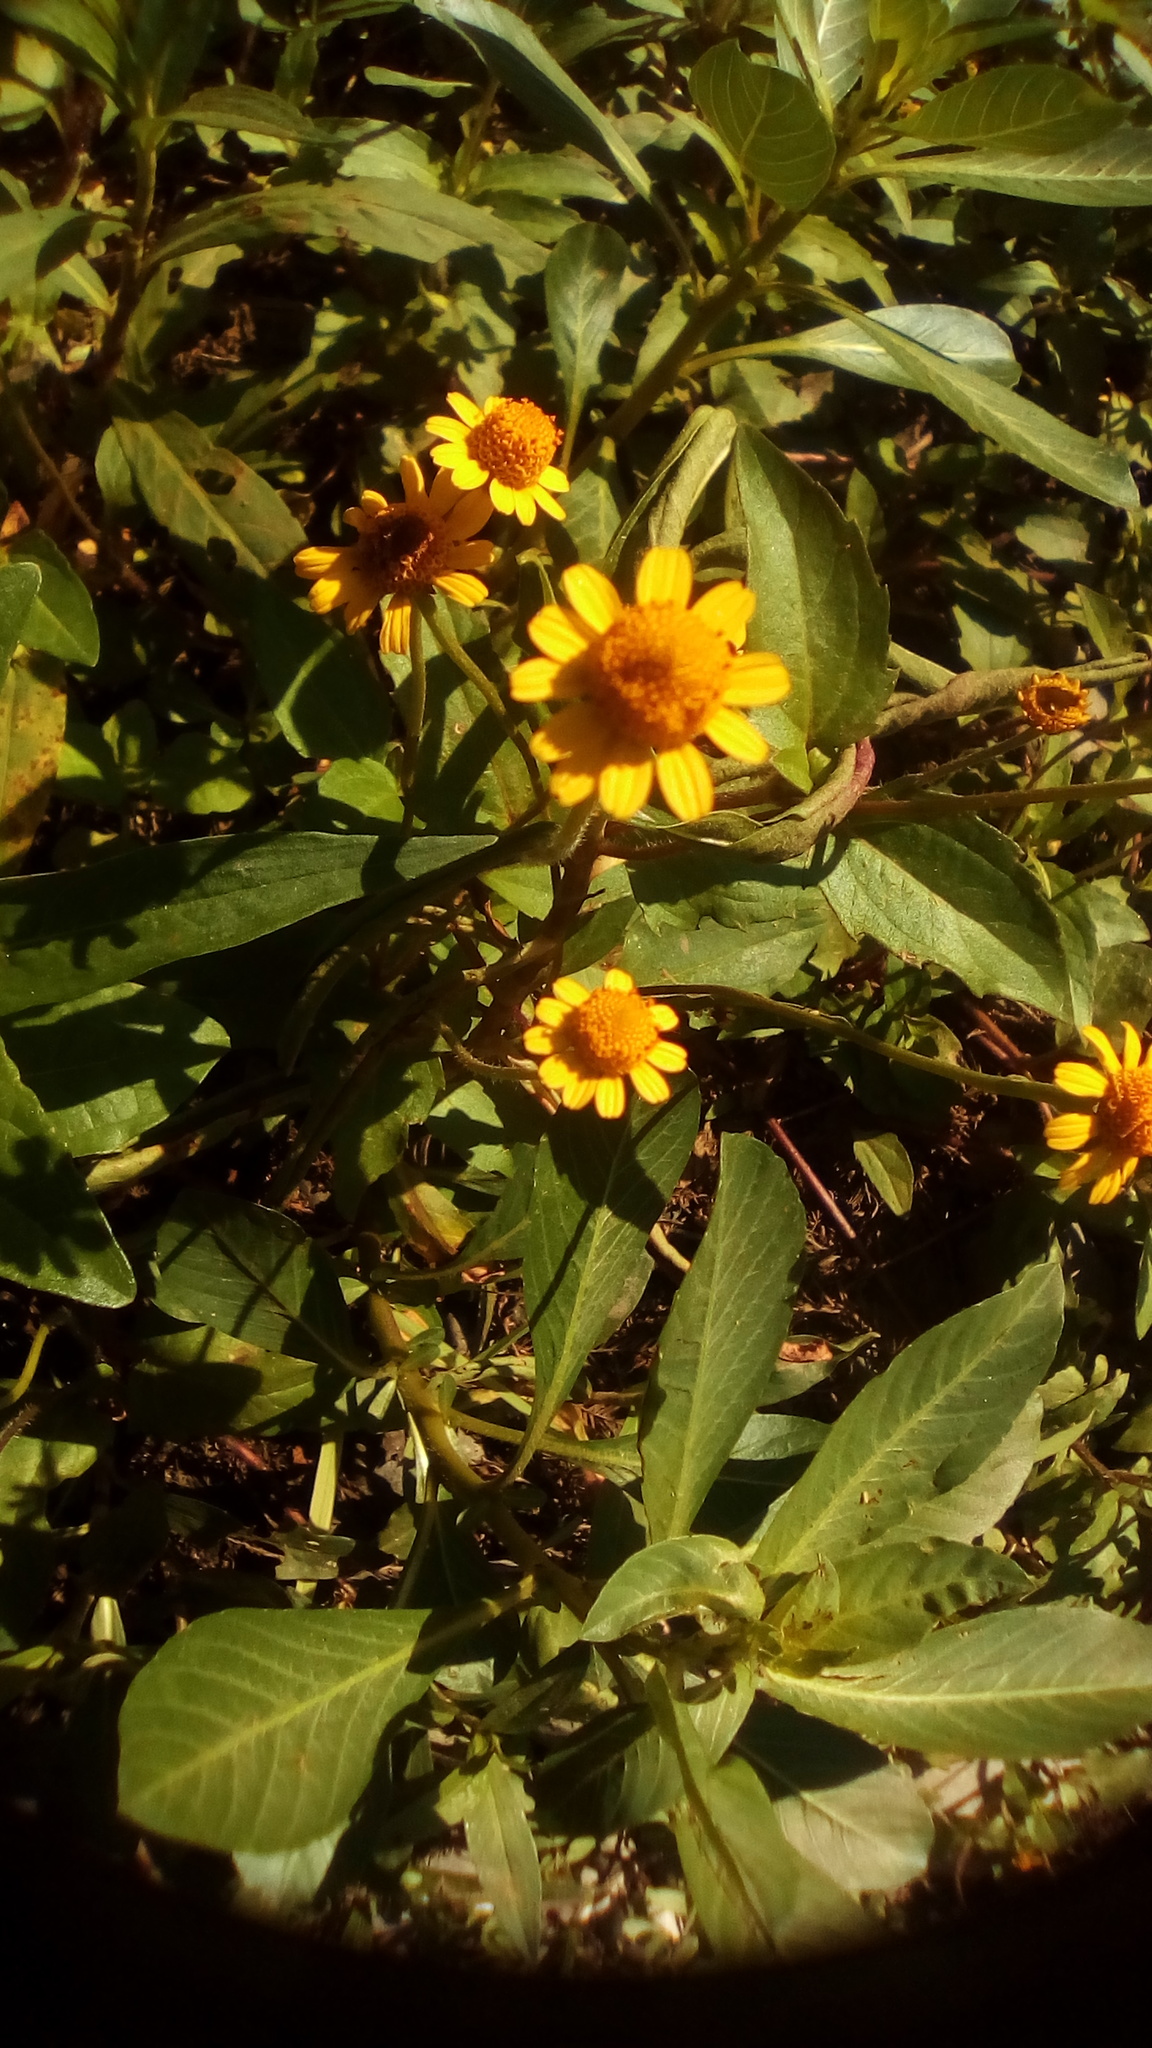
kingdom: Plantae
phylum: Tracheophyta
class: Magnoliopsida
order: Asterales
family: Asteraceae
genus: Acmella
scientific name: Acmella repens
